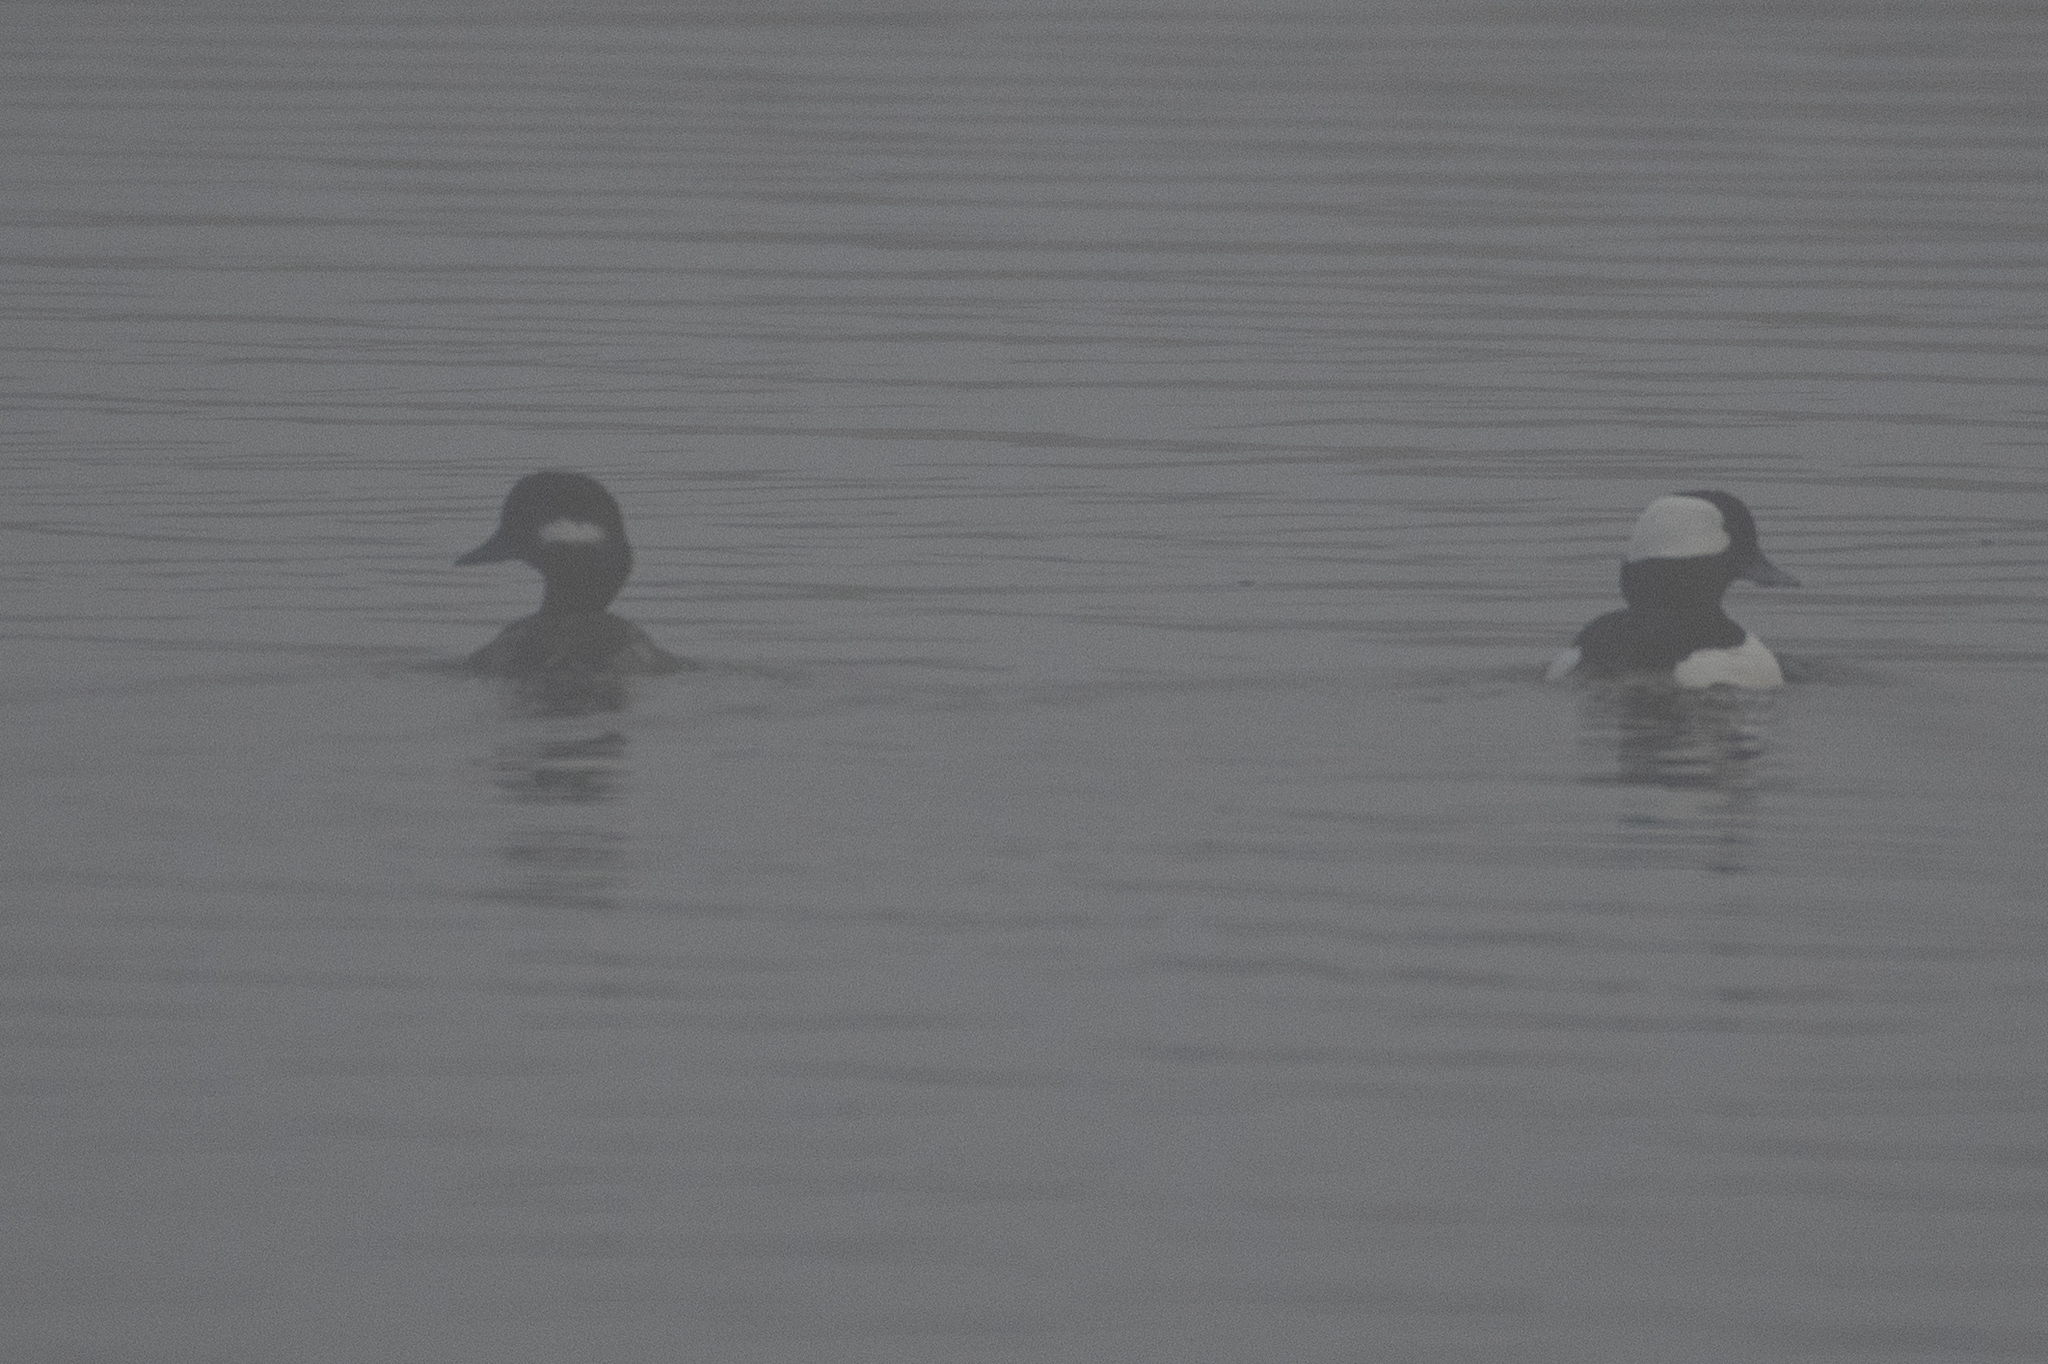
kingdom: Animalia
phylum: Chordata
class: Aves
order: Anseriformes
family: Anatidae
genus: Bucephala
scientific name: Bucephala albeola
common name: Bufflehead
